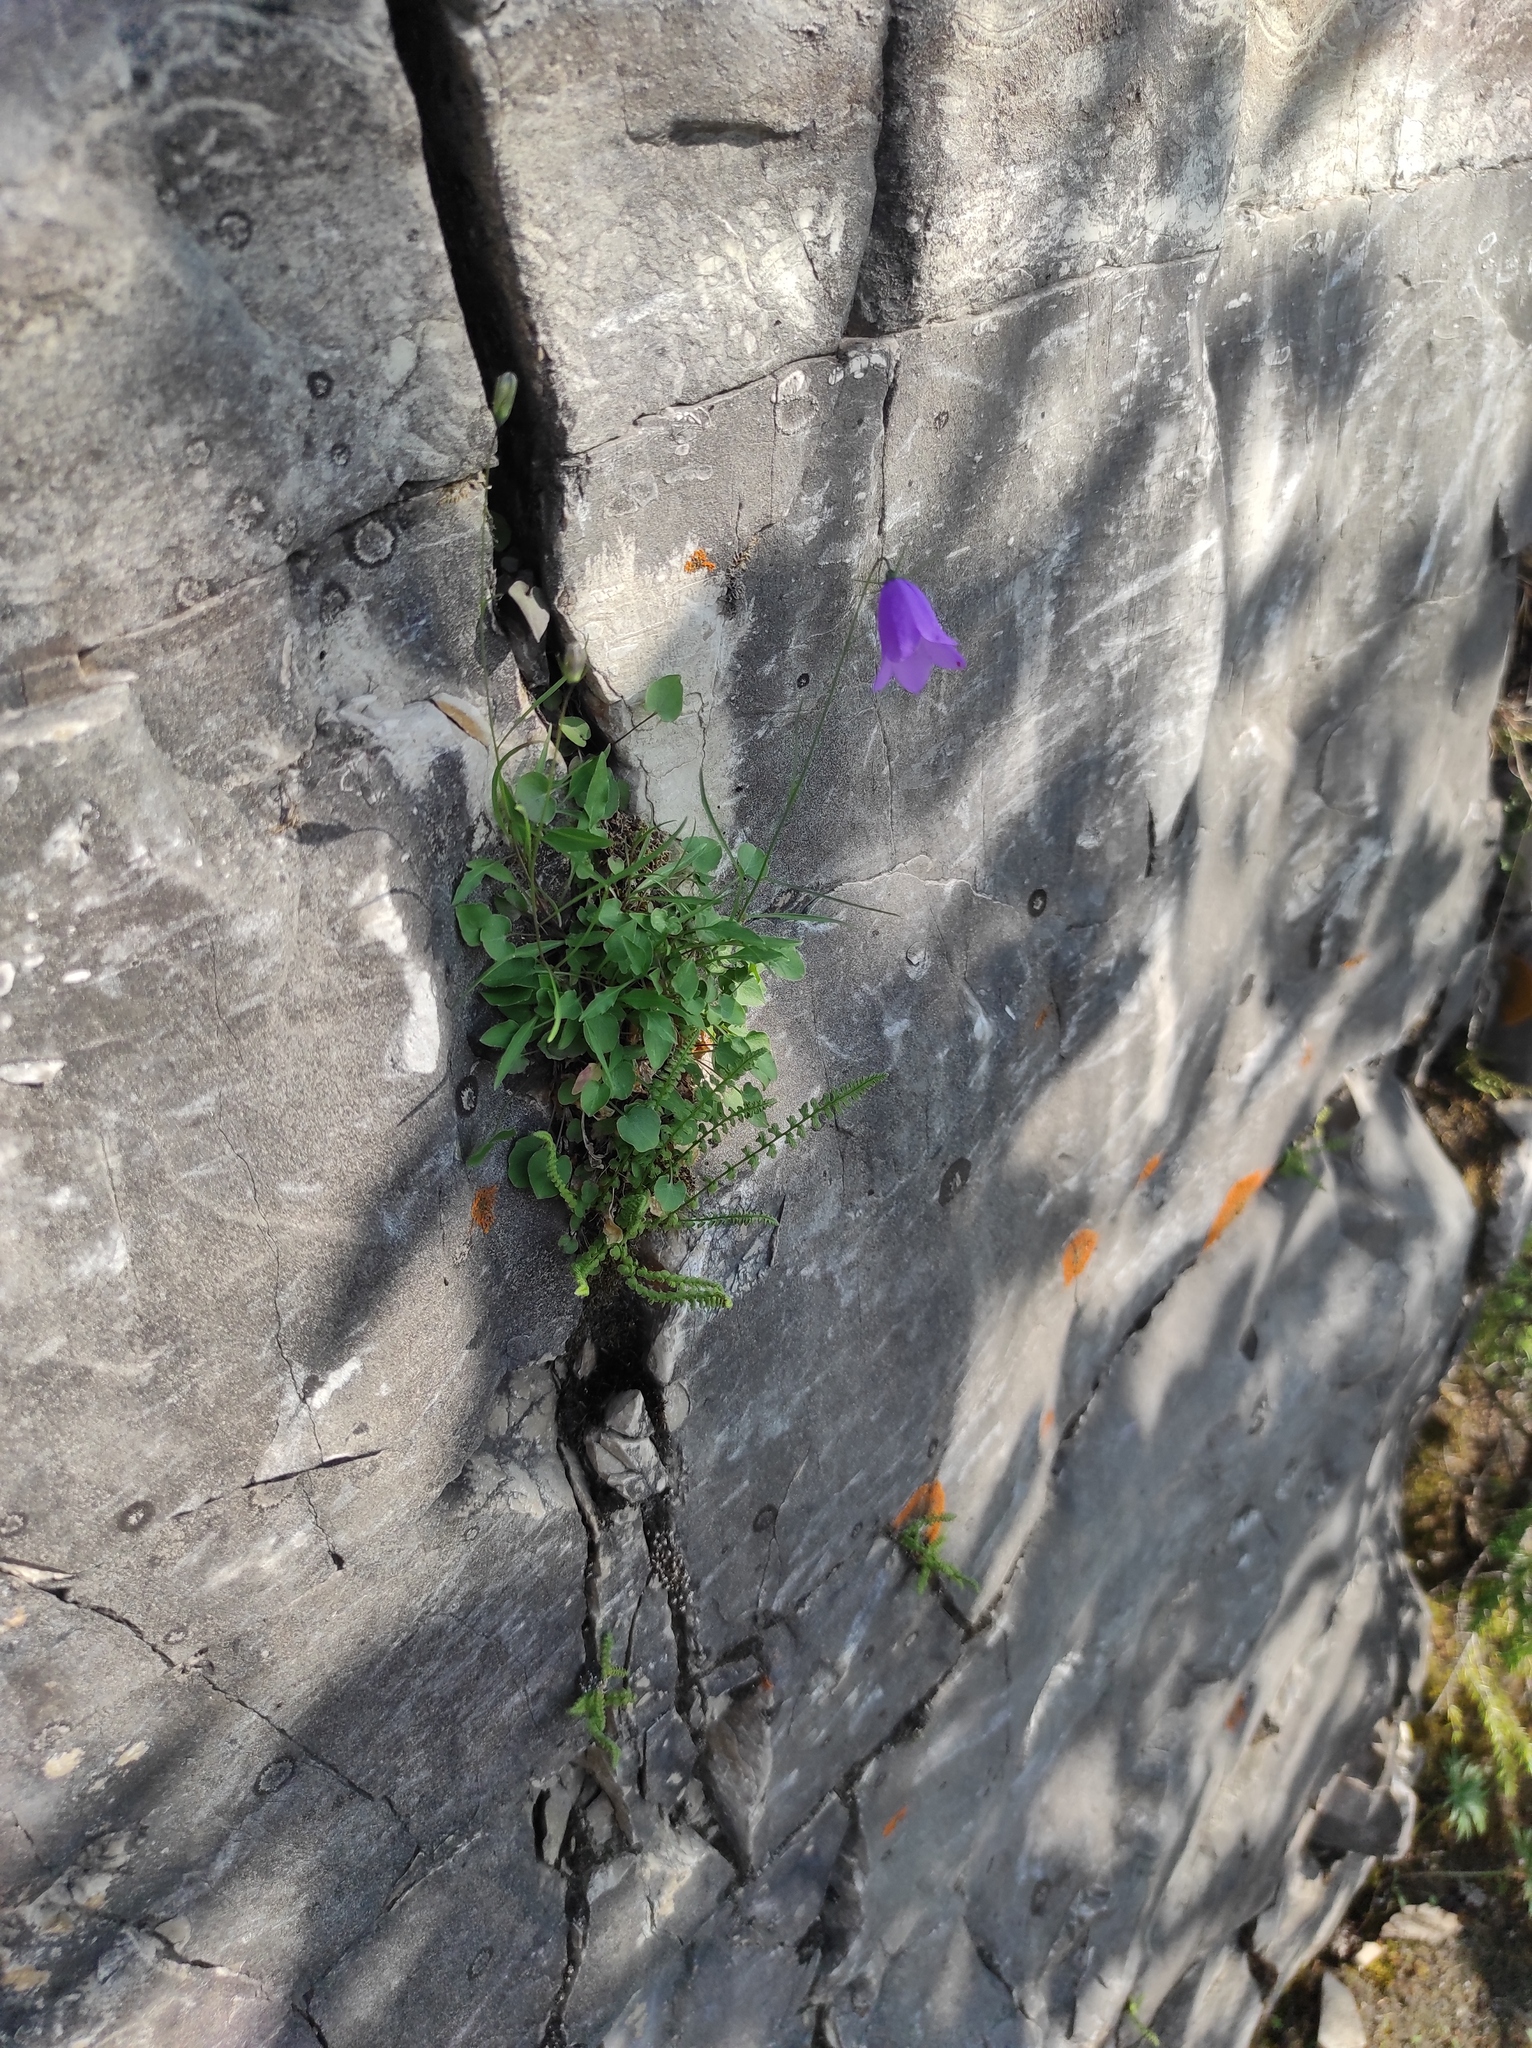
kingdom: Plantae
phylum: Tracheophyta
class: Magnoliopsida
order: Asterales
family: Campanulaceae
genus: Campanula
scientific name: Campanula rotundifolia
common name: Harebell
